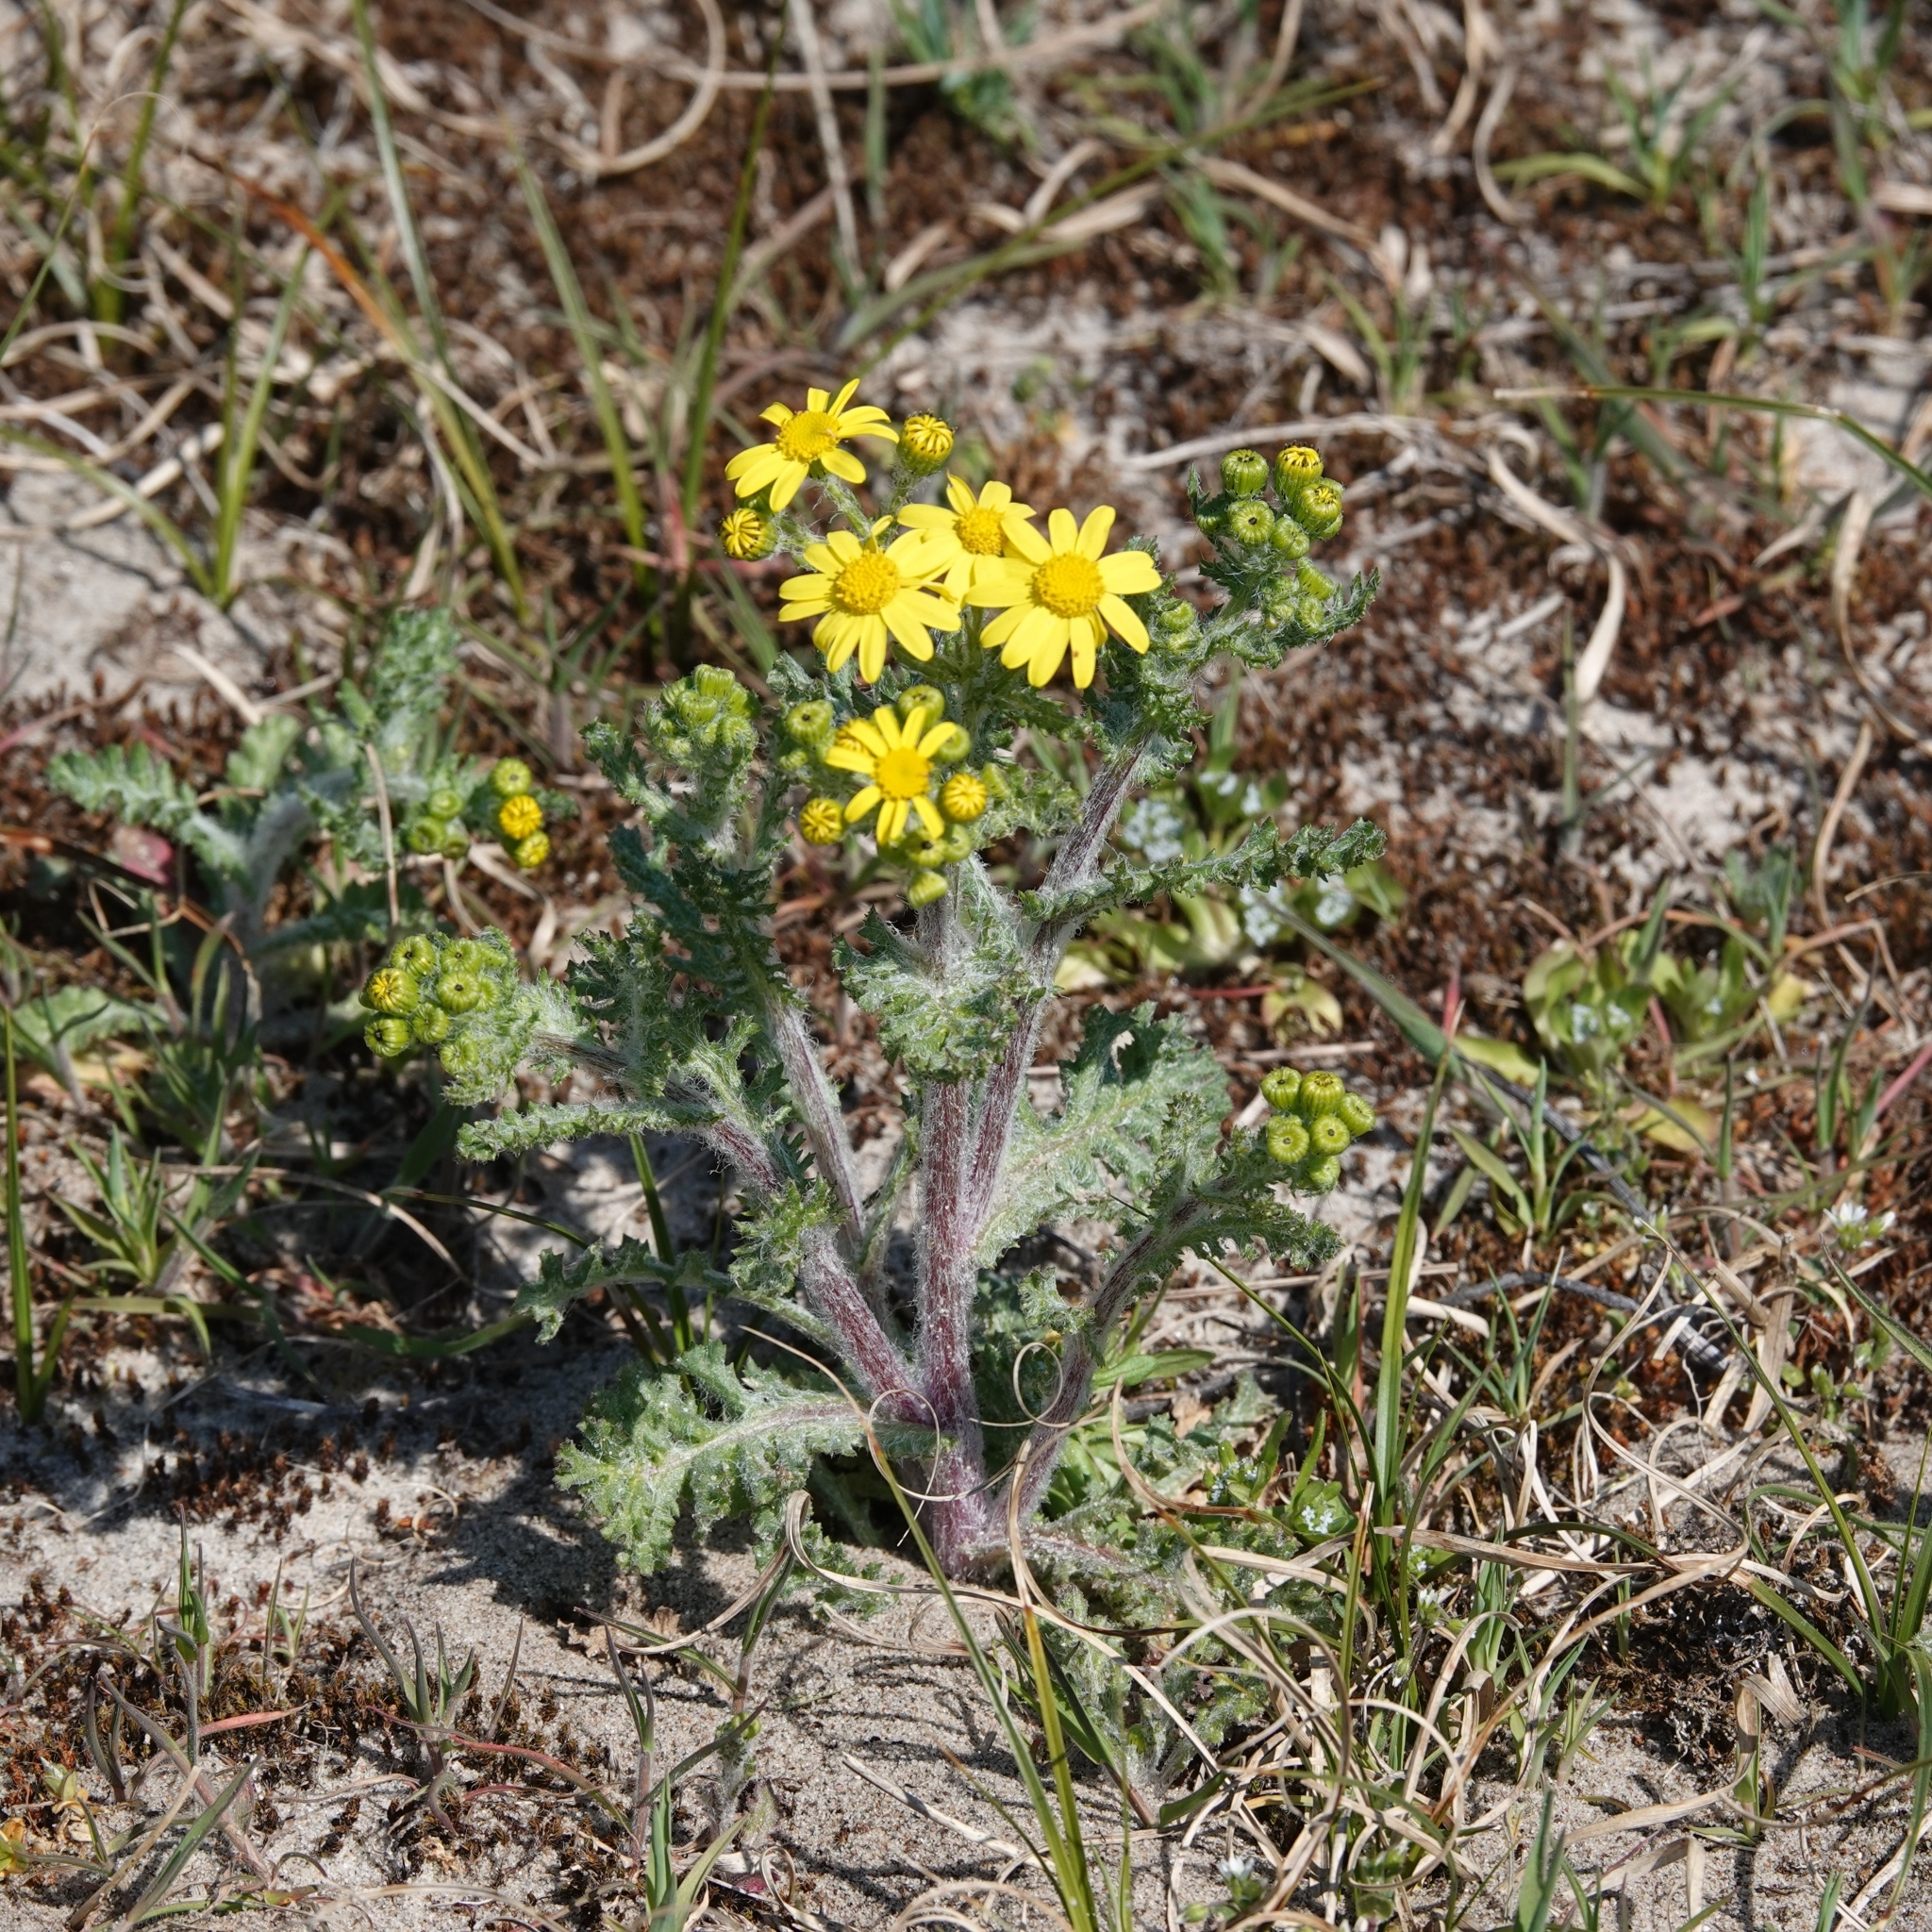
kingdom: Plantae
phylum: Tracheophyta
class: Magnoliopsida
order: Asterales
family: Asteraceae
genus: Senecio
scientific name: Senecio vernalis
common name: Eastern groundsel
